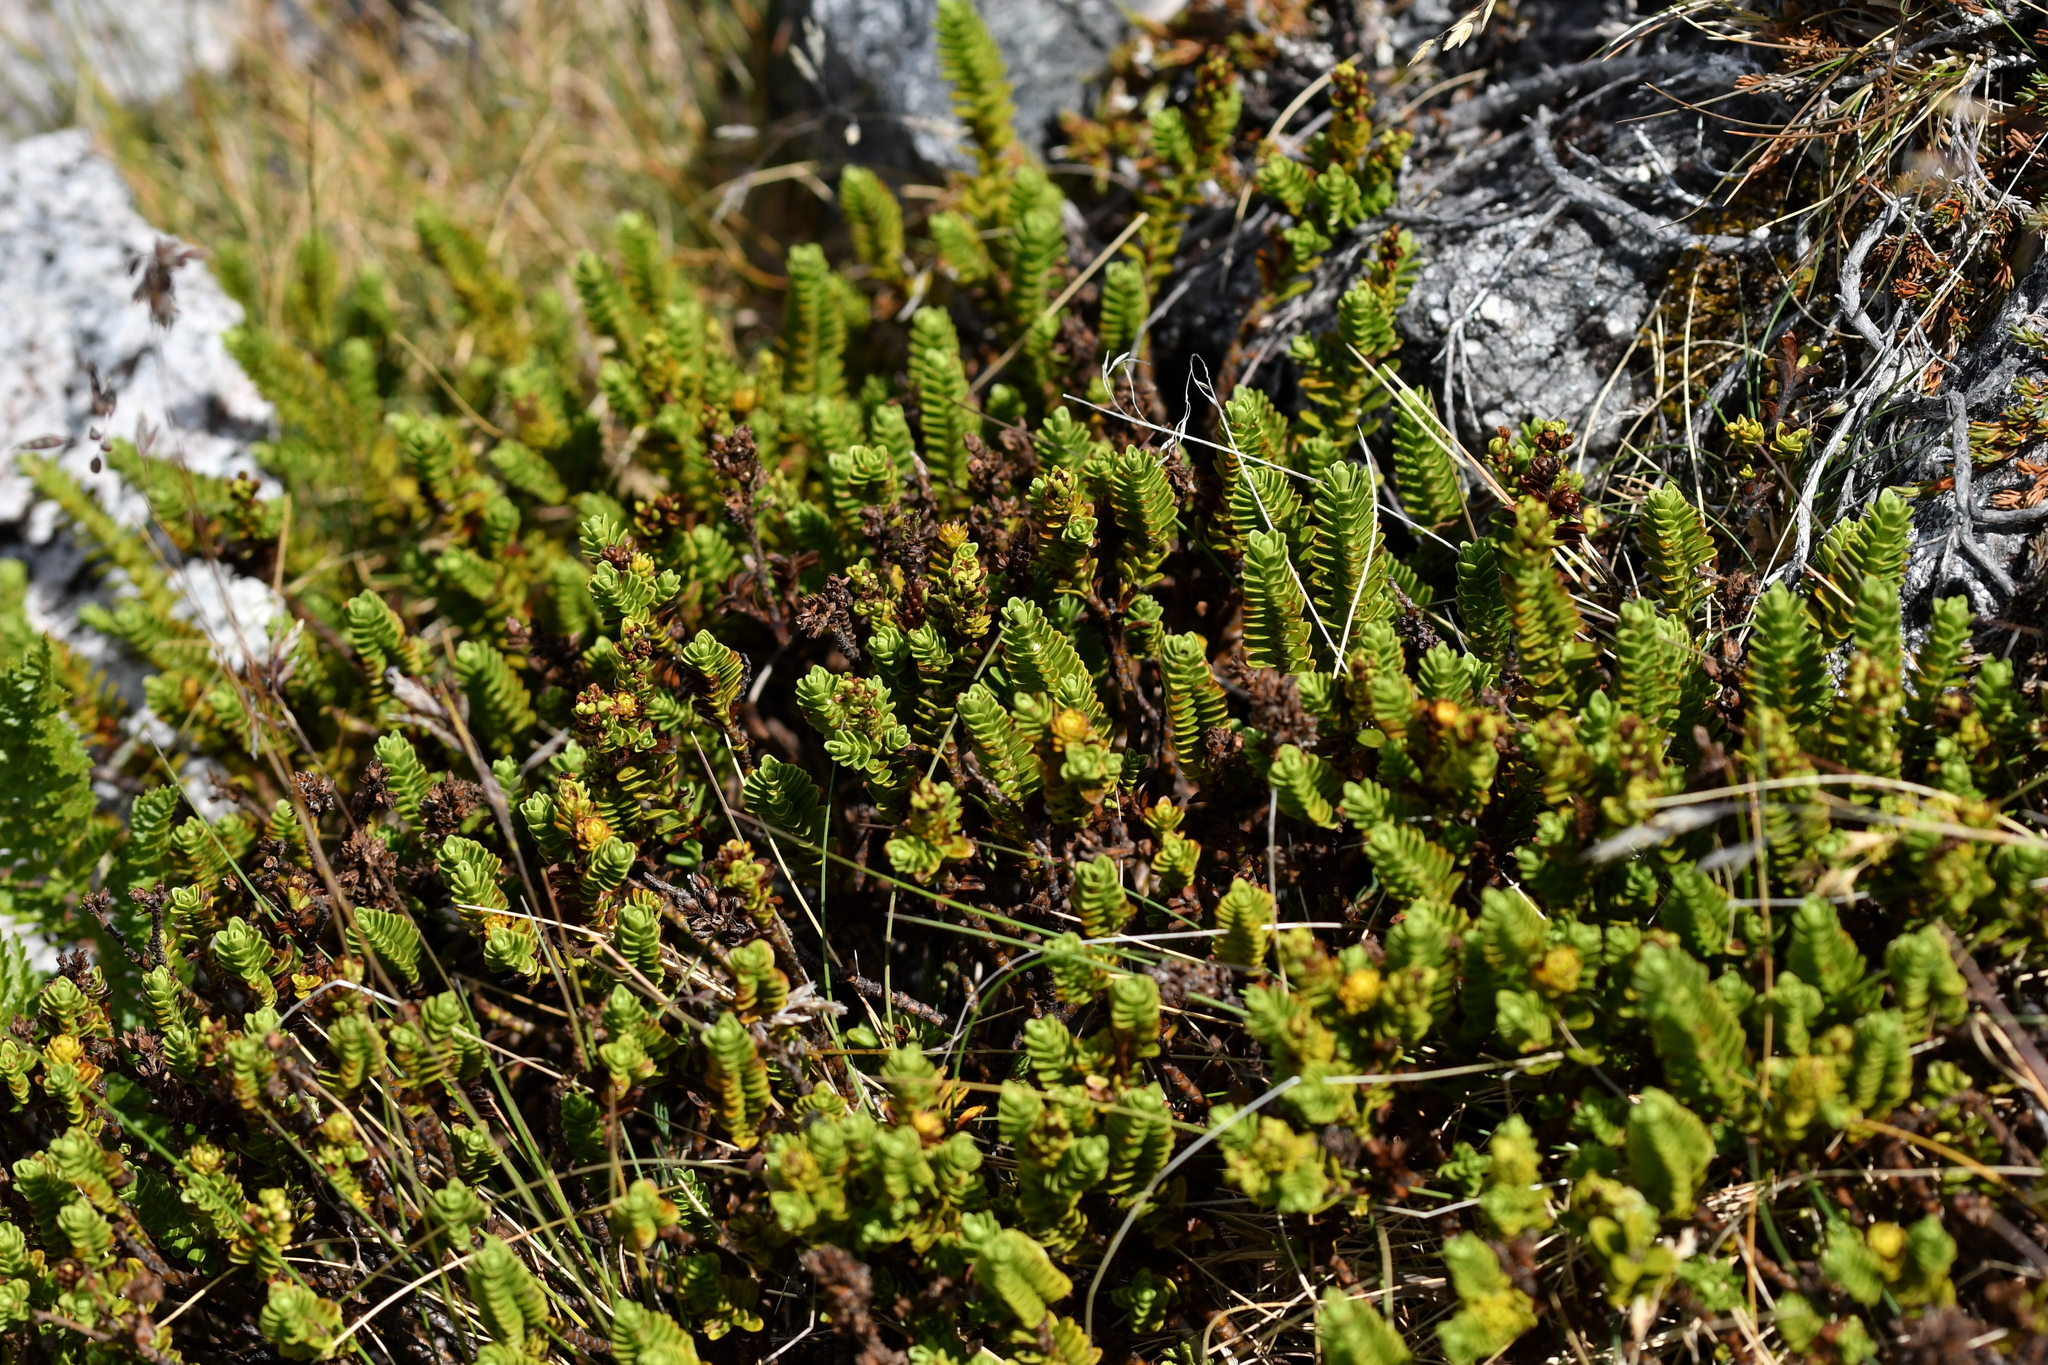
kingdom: Plantae
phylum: Tracheophyta
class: Magnoliopsida
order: Lamiales
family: Plantaginaceae
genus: Veronica
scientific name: Veronica murrellii
